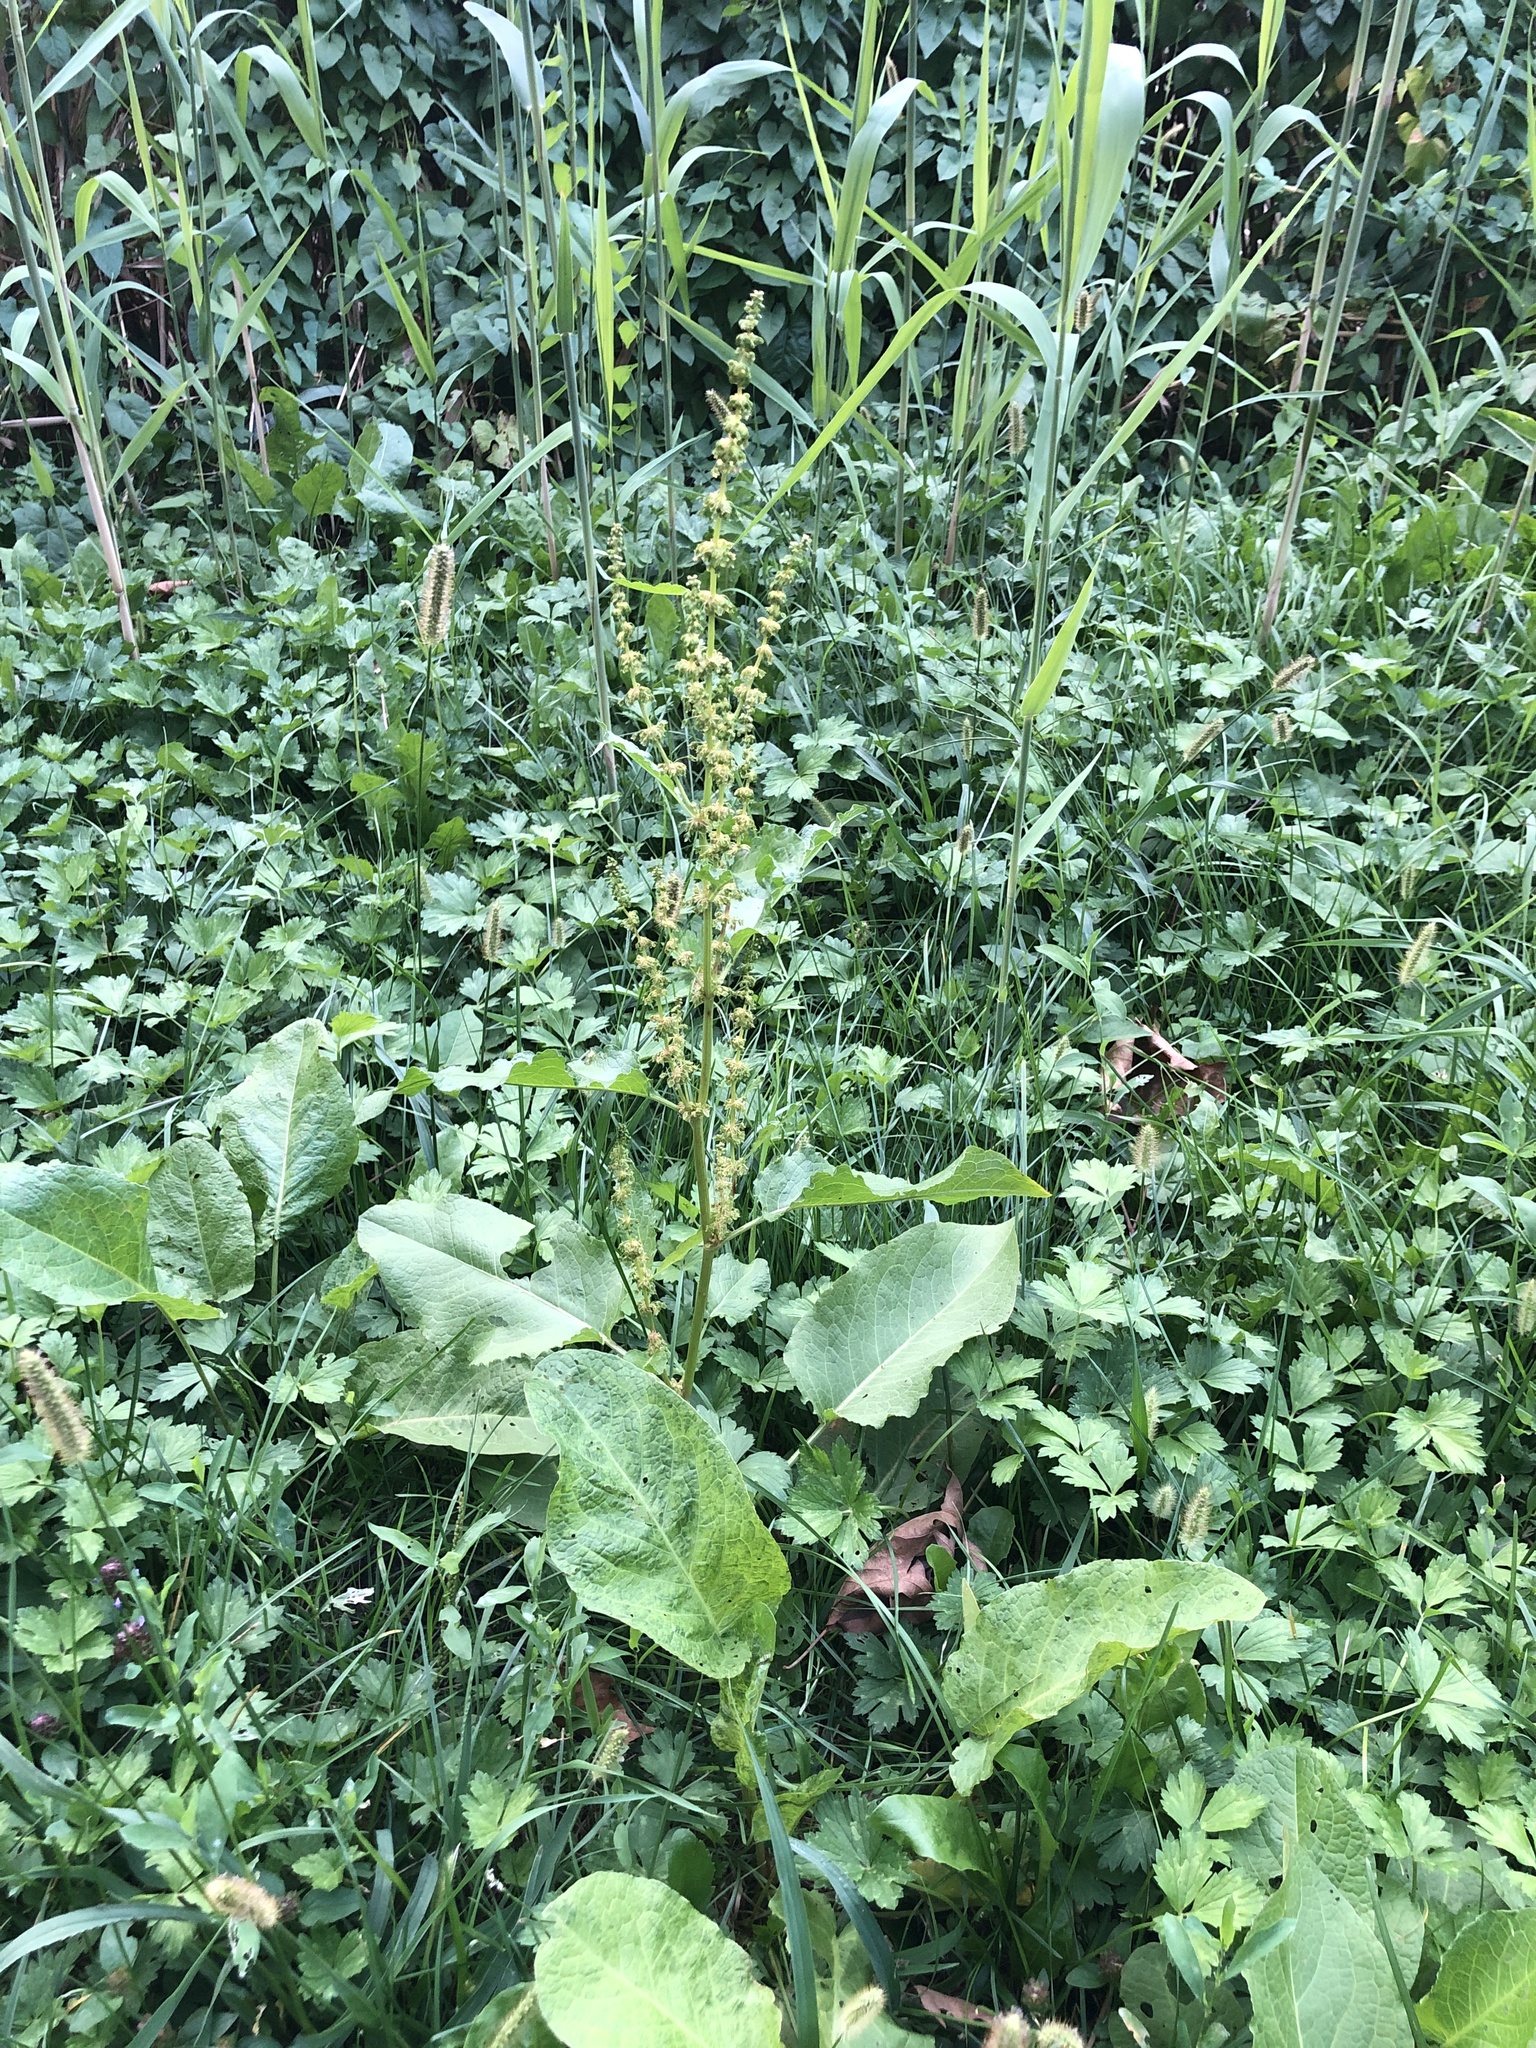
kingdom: Plantae
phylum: Tracheophyta
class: Magnoliopsida
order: Caryophyllales
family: Polygonaceae
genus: Rumex
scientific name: Rumex obtusifolius
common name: Bitter dock
